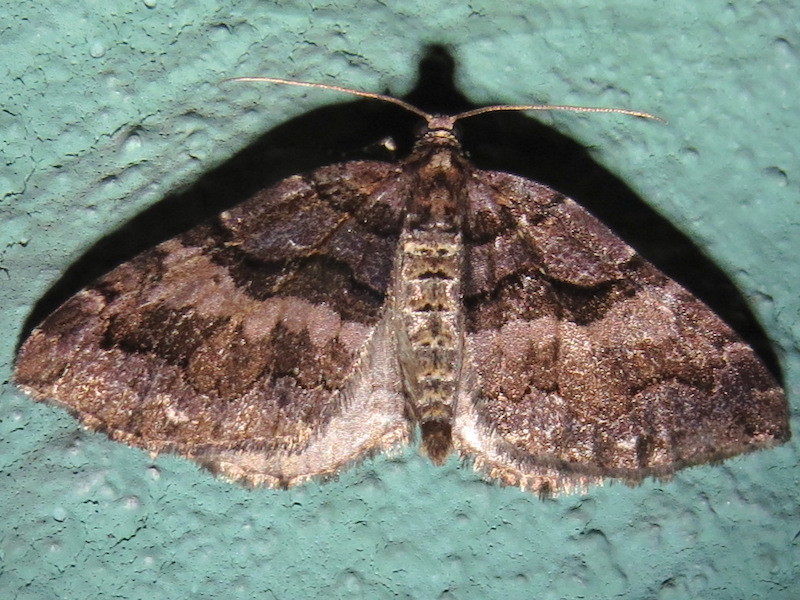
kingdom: Animalia
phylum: Arthropoda
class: Insecta
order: Lepidoptera
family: Geometridae
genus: Anticlea
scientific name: Anticlea vasiliata
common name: Variable carpet
